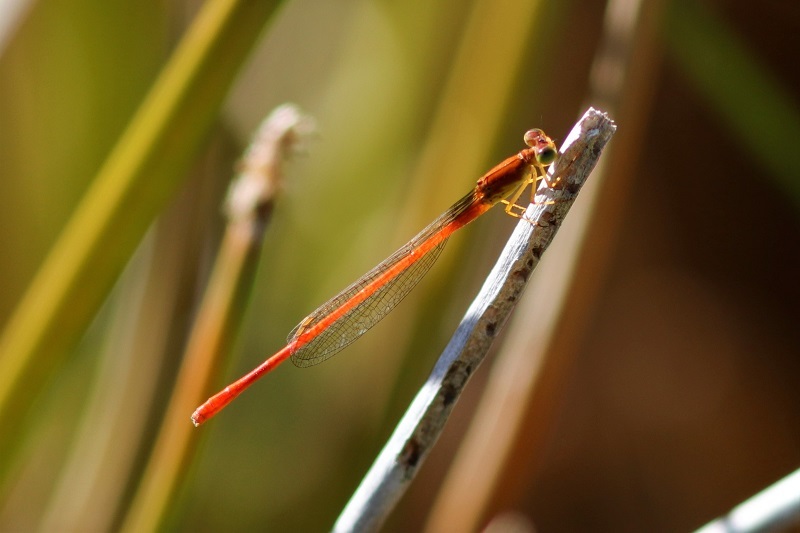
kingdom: Animalia
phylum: Arthropoda
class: Insecta
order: Odonata
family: Coenagrionidae
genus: Ceriagrion
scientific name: Ceriagrion glabrum
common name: Common pond damsel
